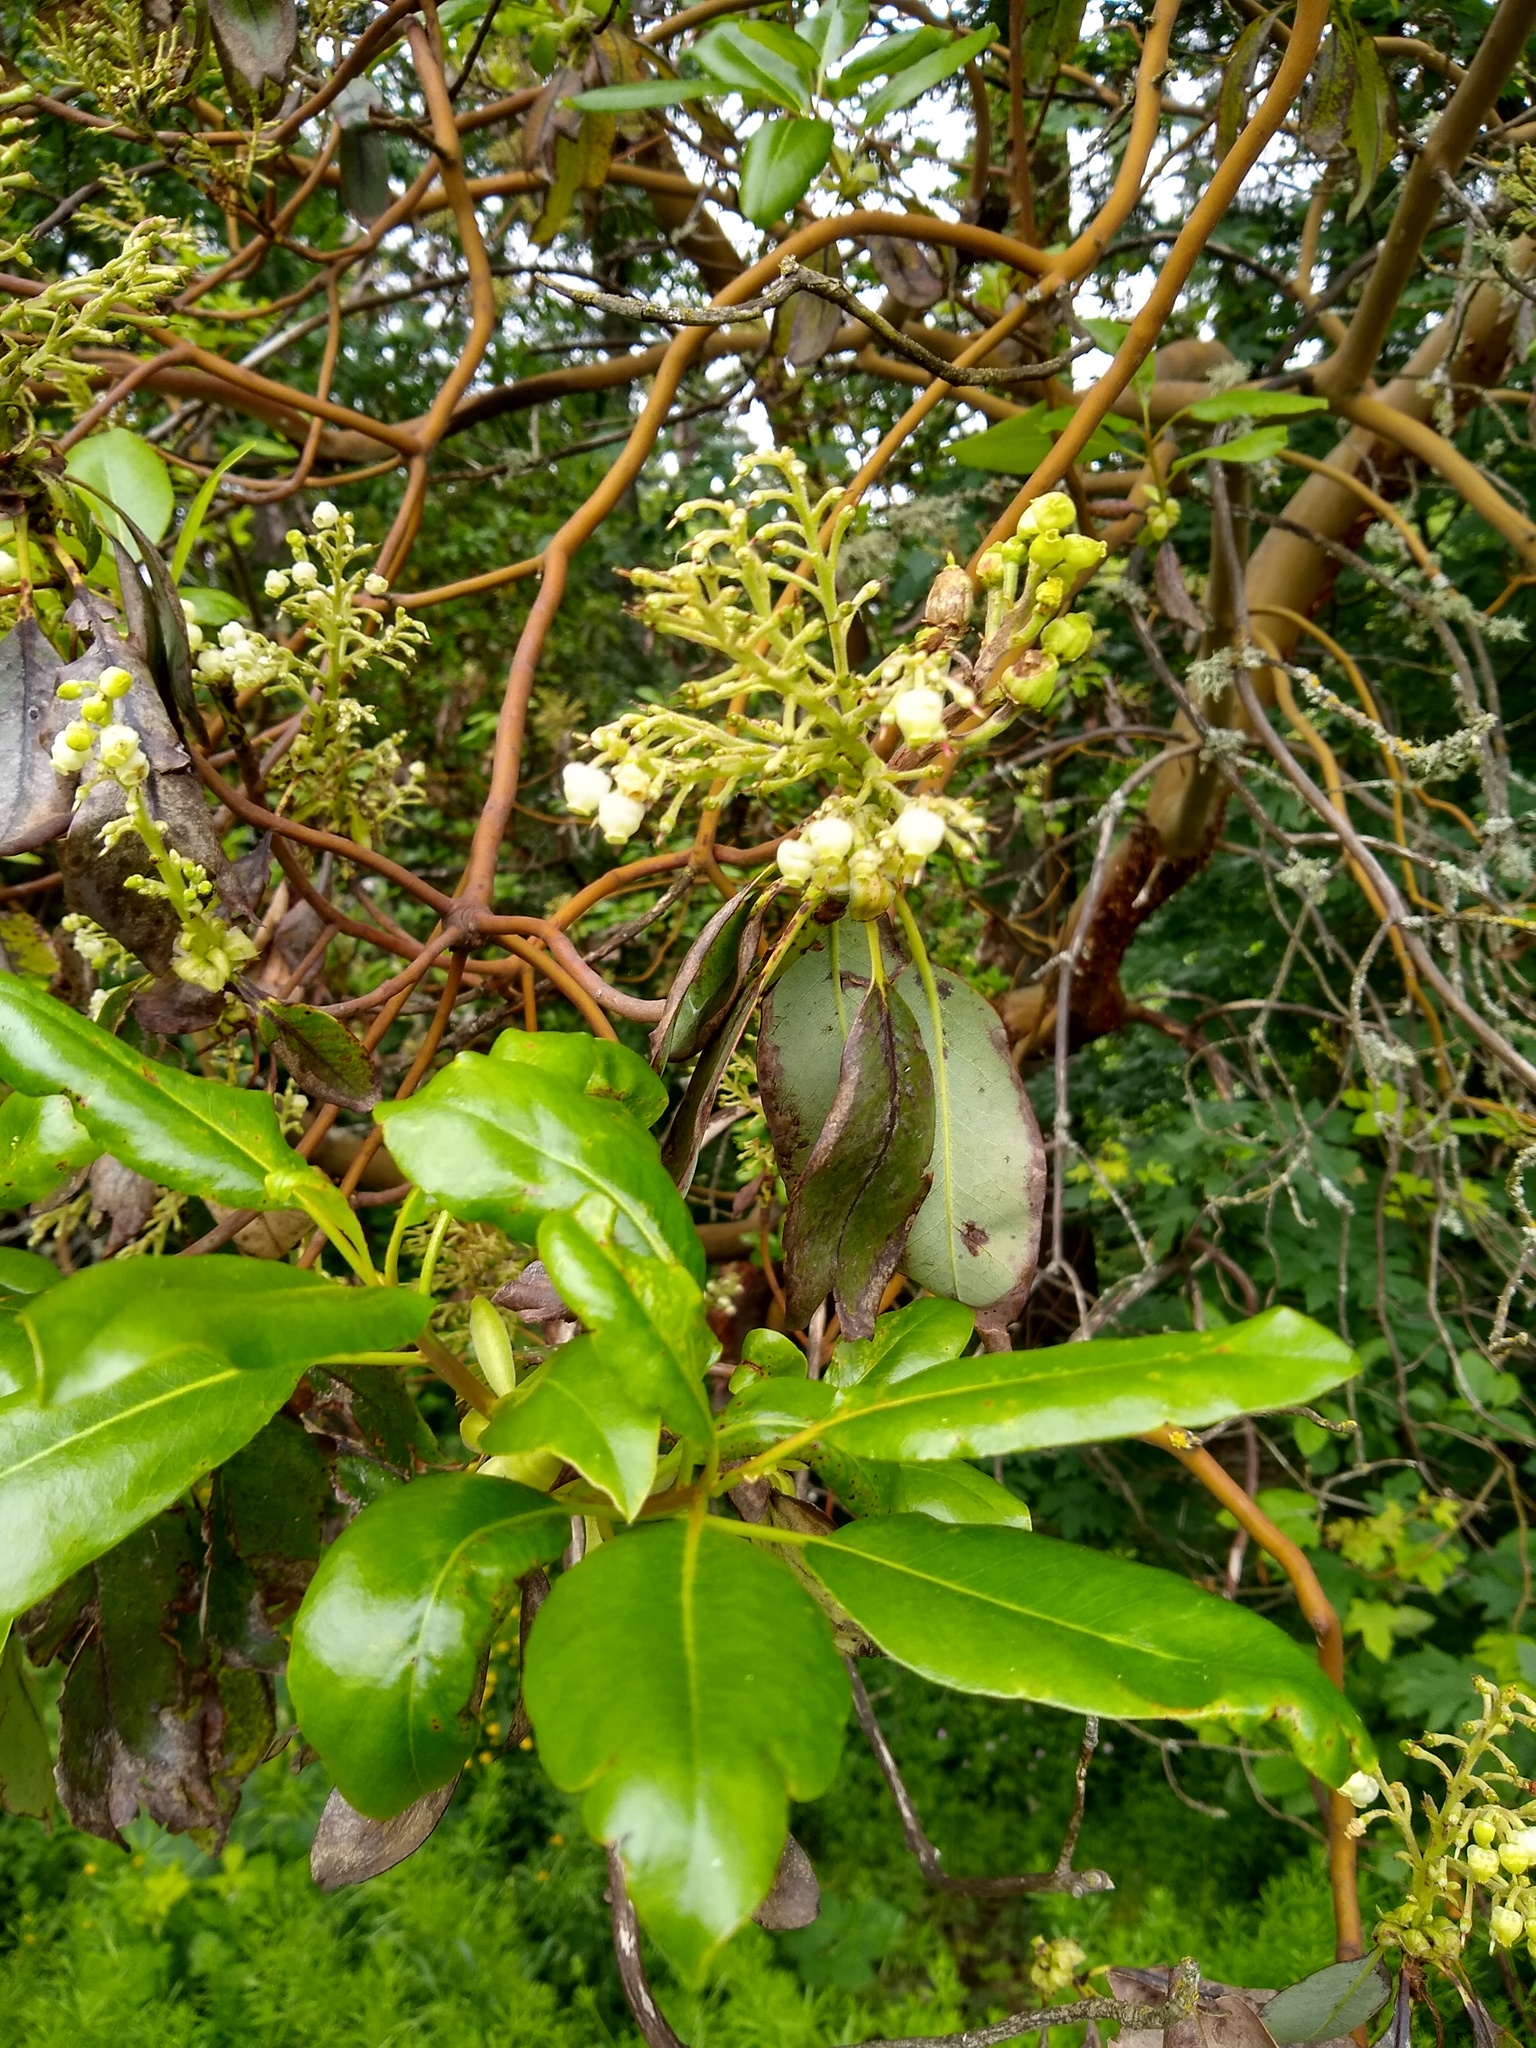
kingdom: Plantae
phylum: Tracheophyta
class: Magnoliopsida
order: Ericales
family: Ericaceae
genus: Arbutus
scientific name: Arbutus menziesii
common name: Pacific madrone
